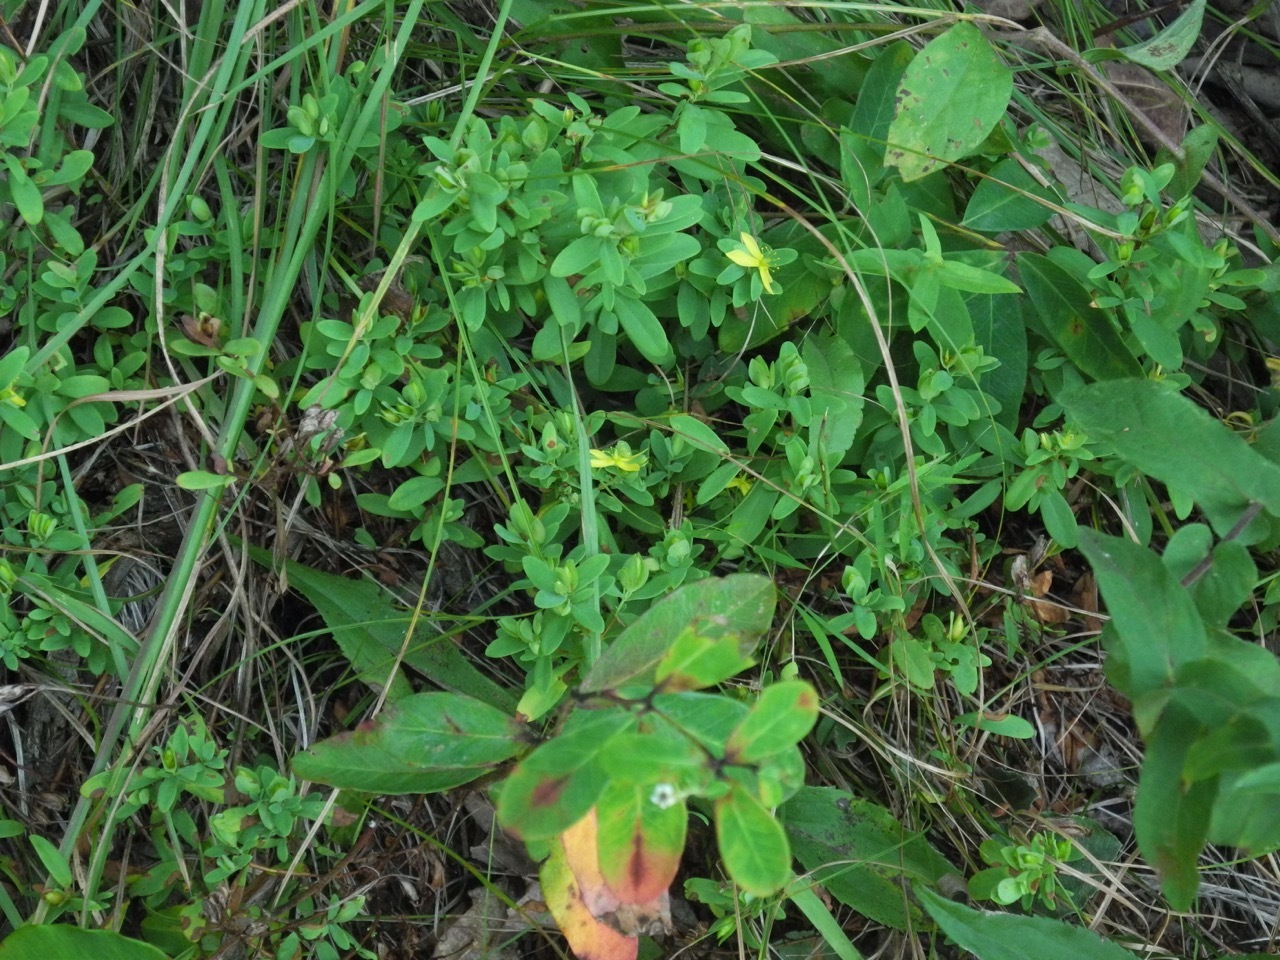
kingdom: Plantae
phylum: Tracheophyta
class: Magnoliopsida
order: Malpighiales
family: Hypericaceae
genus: Hypericum
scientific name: Hypericum hypericoides
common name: St. andrew's cross
